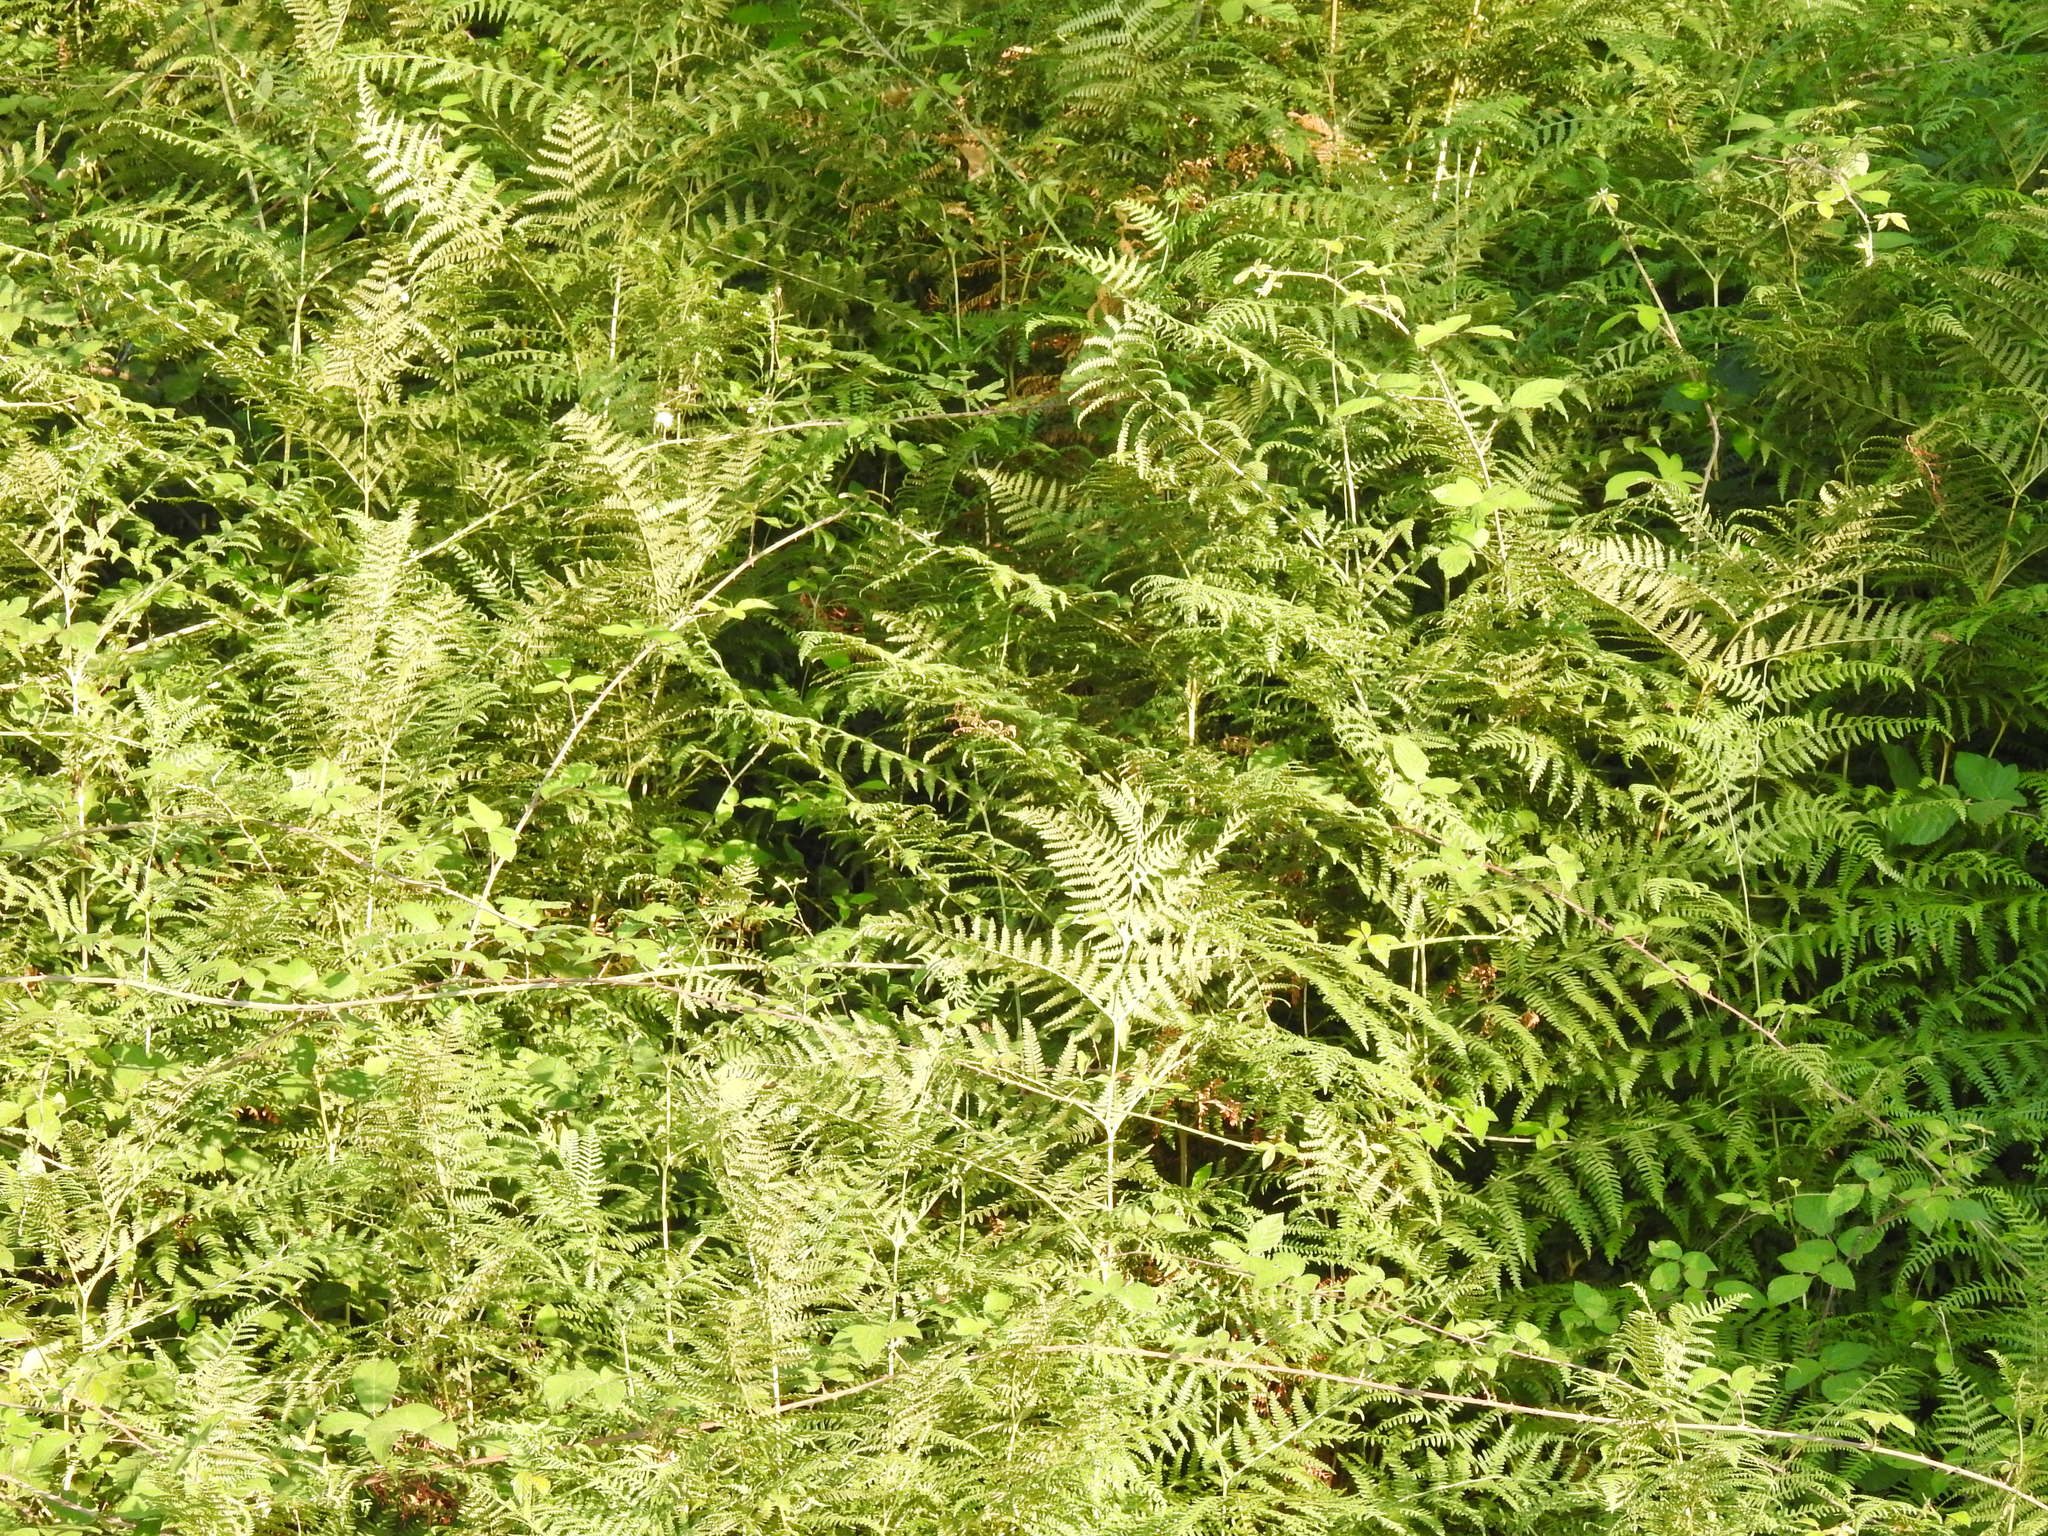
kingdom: Plantae
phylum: Tracheophyta
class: Polypodiopsida
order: Polypodiales
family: Dennstaedtiaceae
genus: Pteridium
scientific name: Pteridium aquilinum
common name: Bracken
